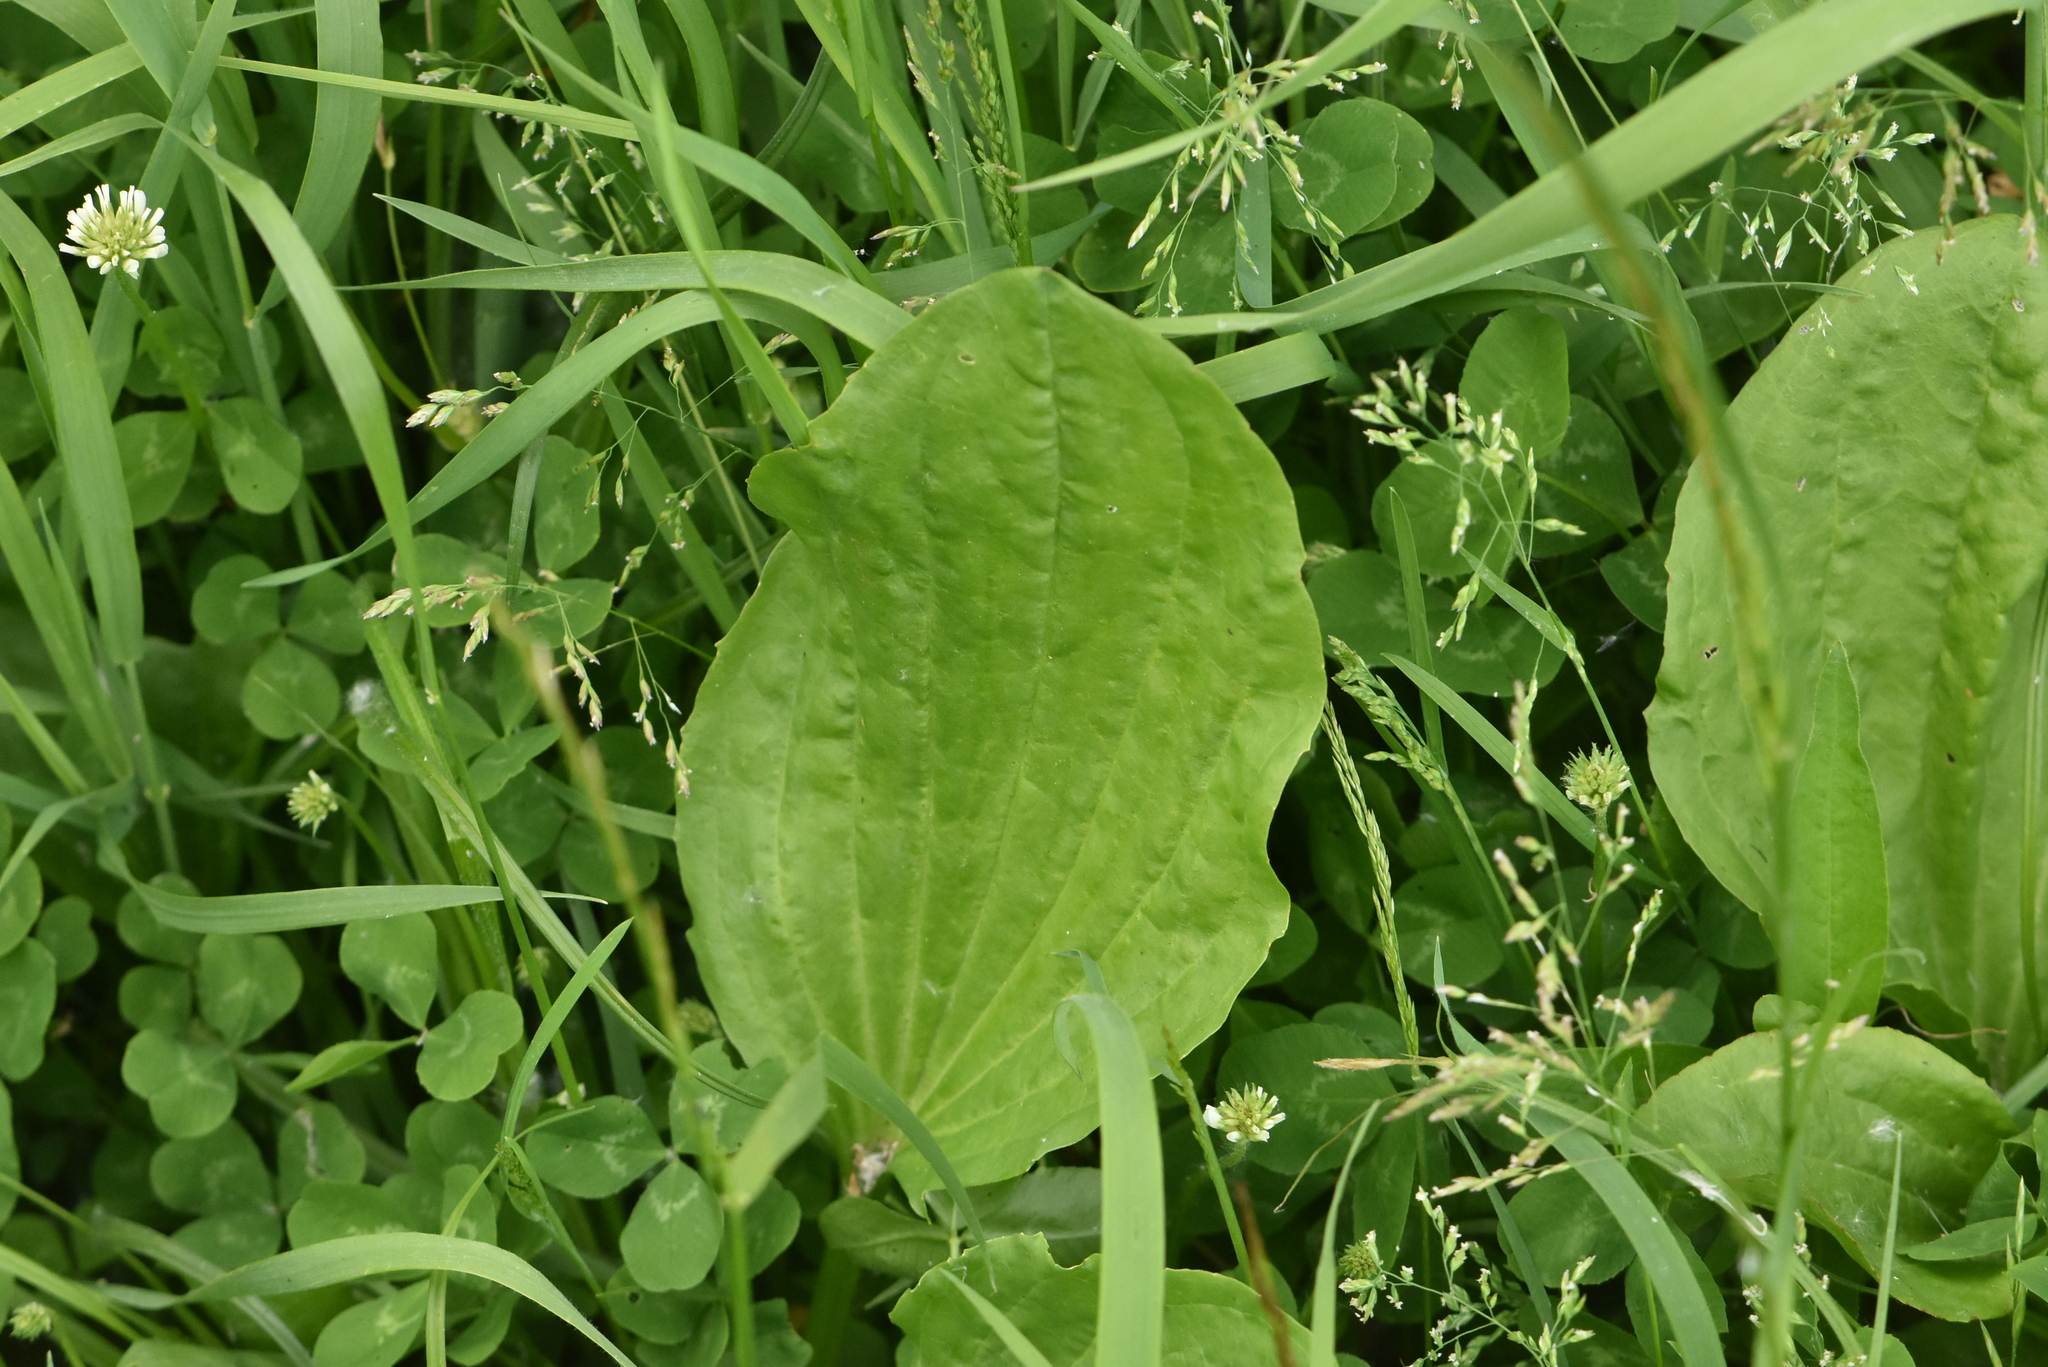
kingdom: Plantae
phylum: Tracheophyta
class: Magnoliopsida
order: Lamiales
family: Plantaginaceae
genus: Plantago
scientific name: Plantago major
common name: Common plantain
